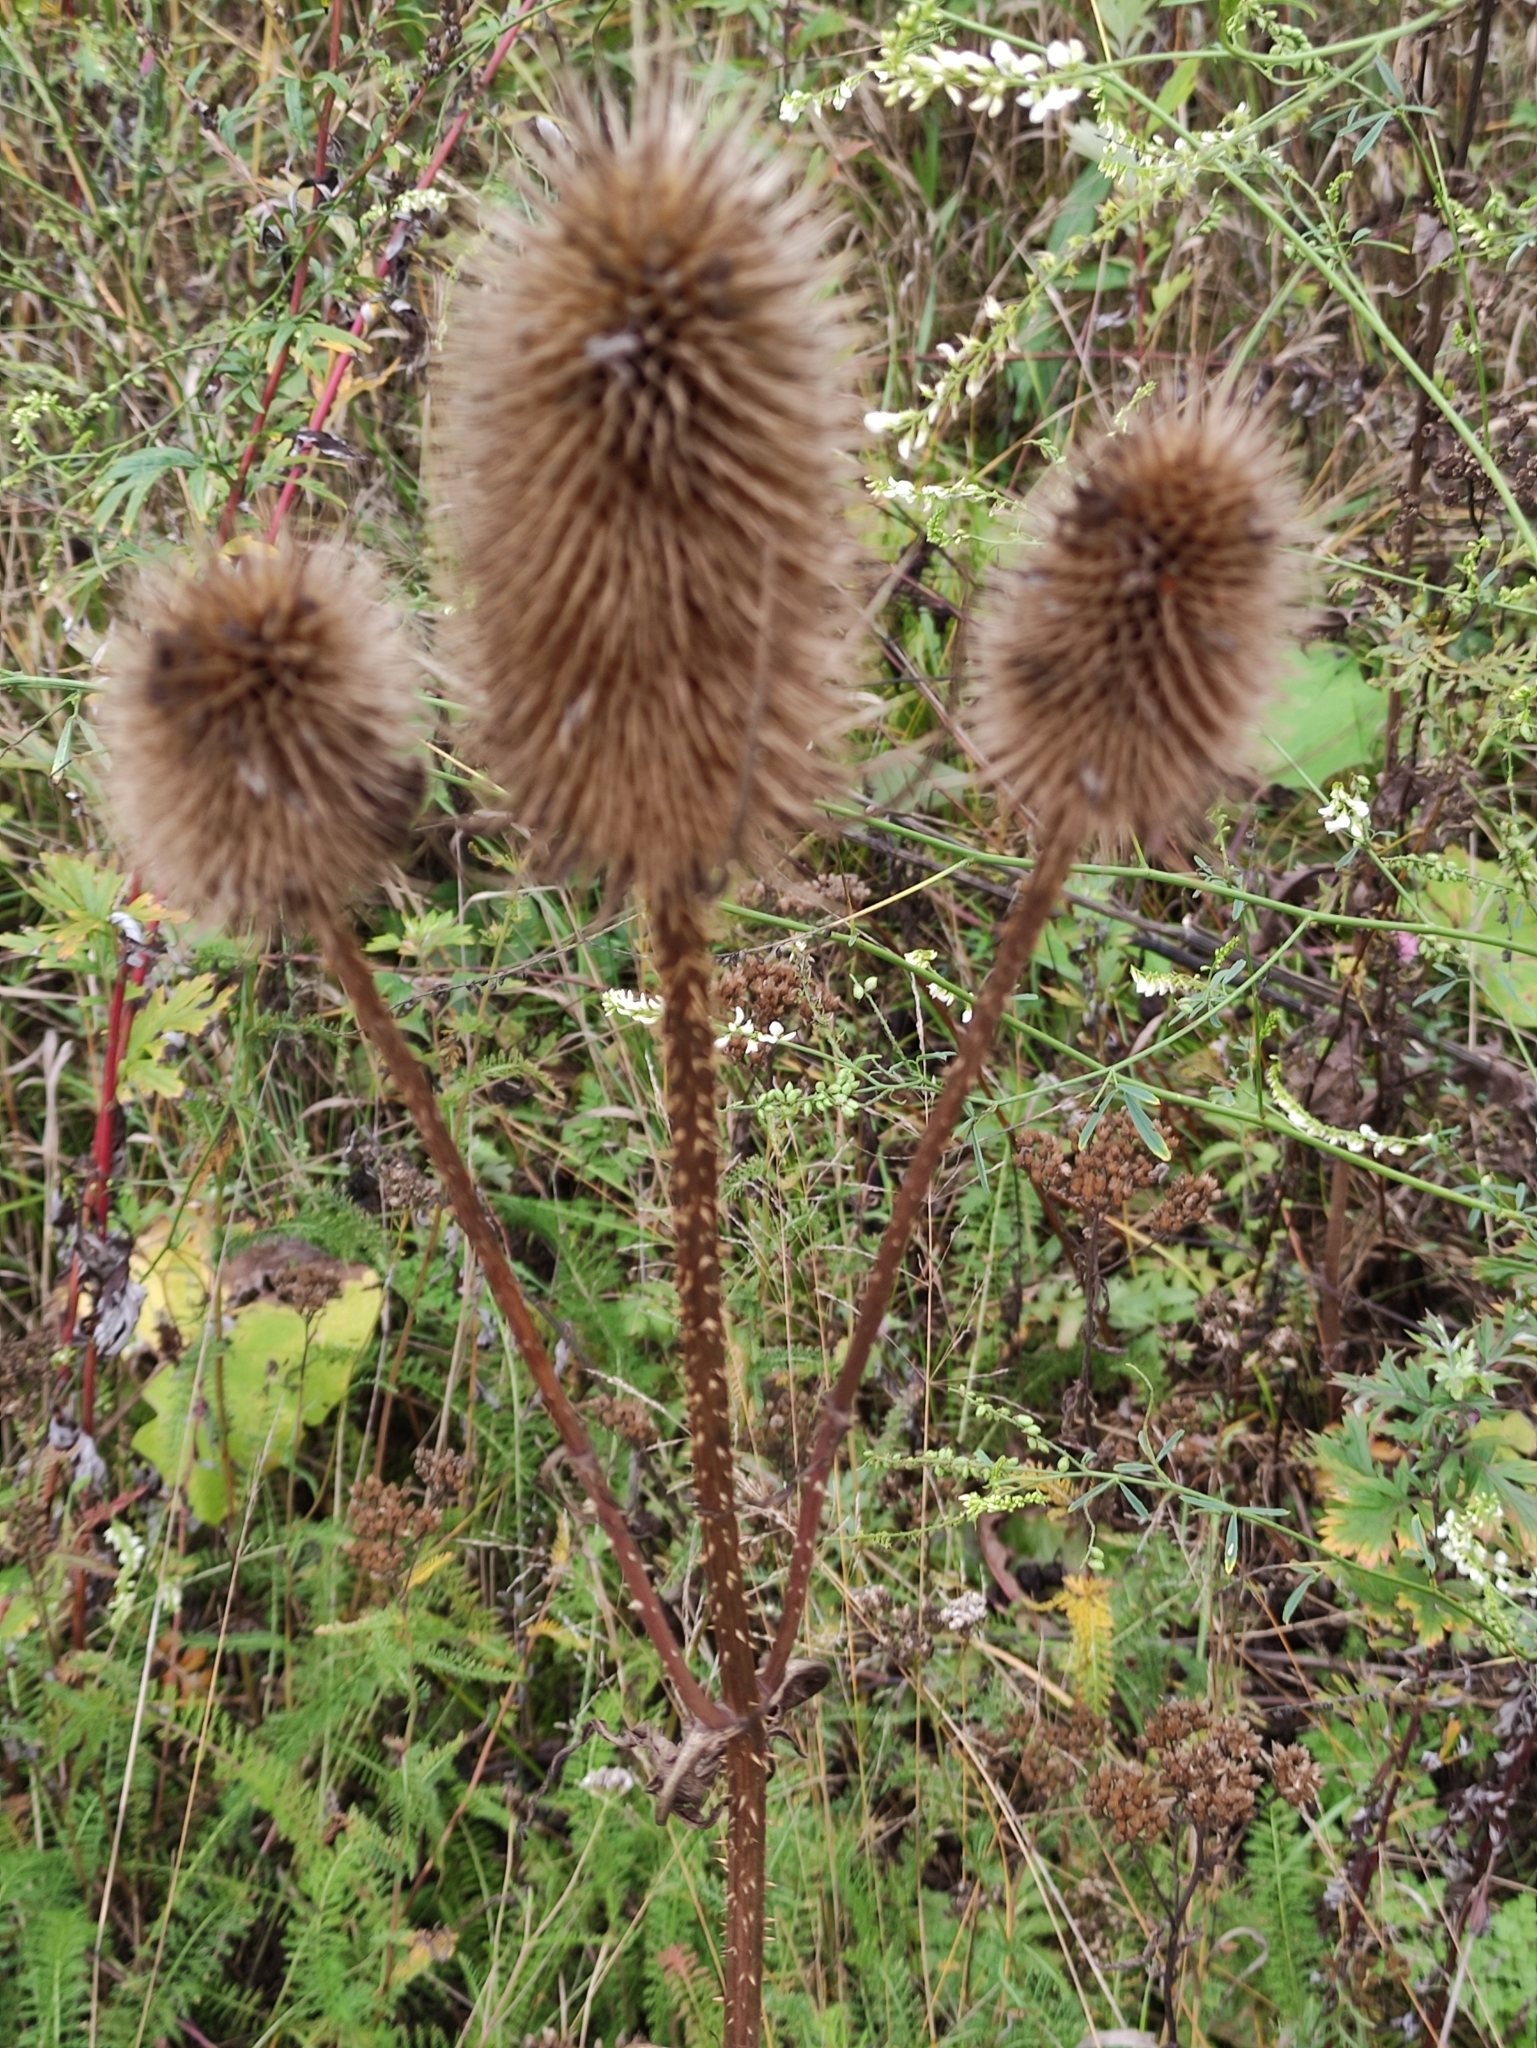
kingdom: Plantae
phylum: Tracheophyta
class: Magnoliopsida
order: Dipsacales
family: Caprifoliaceae
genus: Dipsacus
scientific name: Dipsacus fullonum
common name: Teasel
